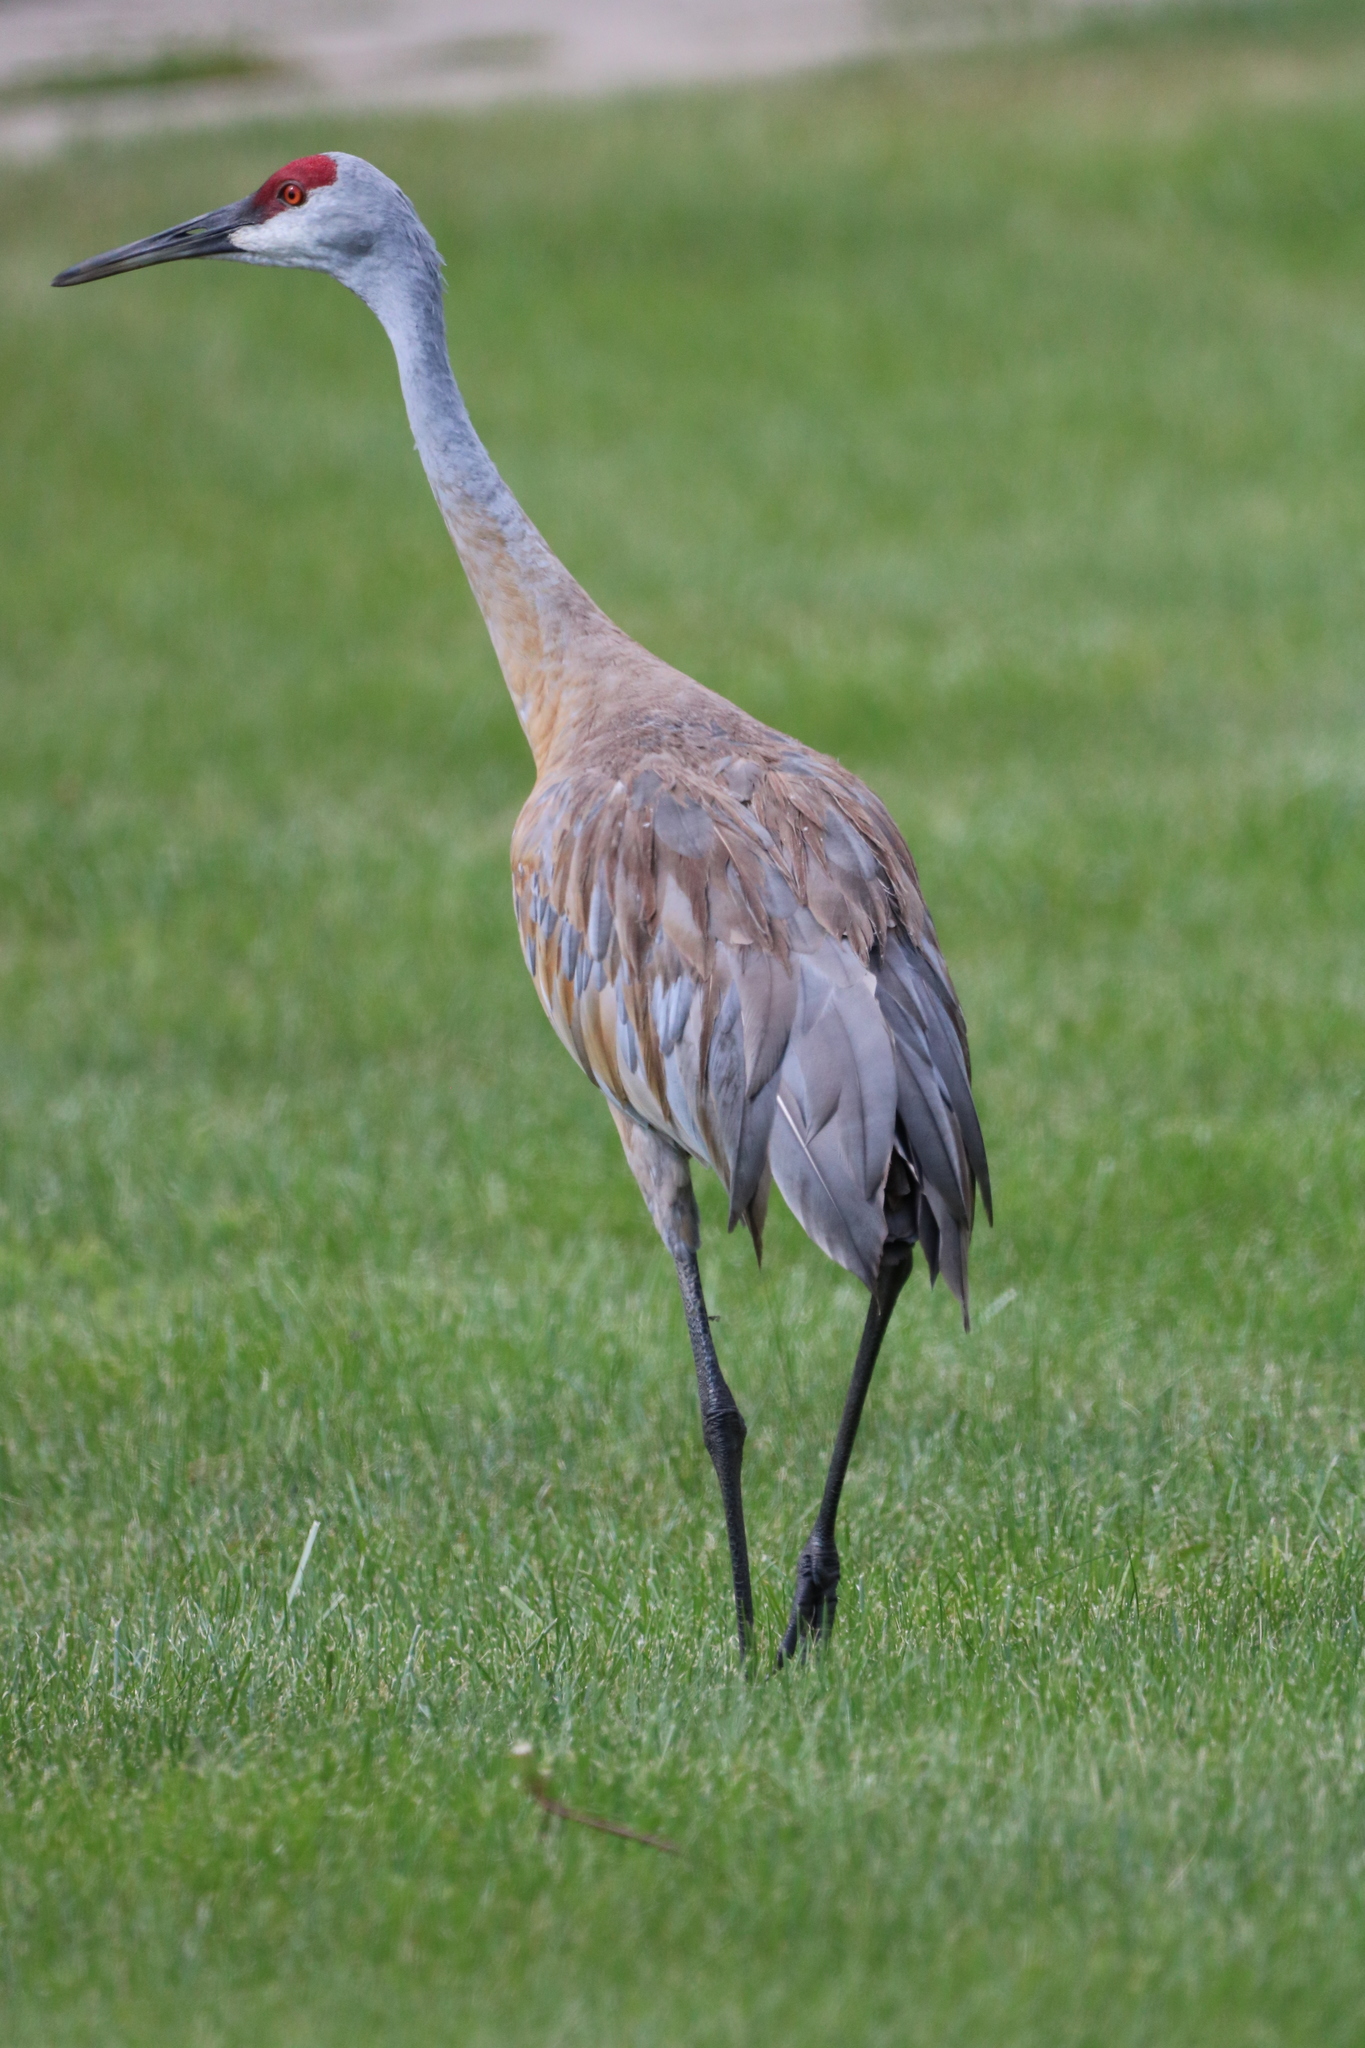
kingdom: Animalia
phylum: Chordata
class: Aves
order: Gruiformes
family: Gruidae
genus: Grus
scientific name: Grus canadensis
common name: Sandhill crane
